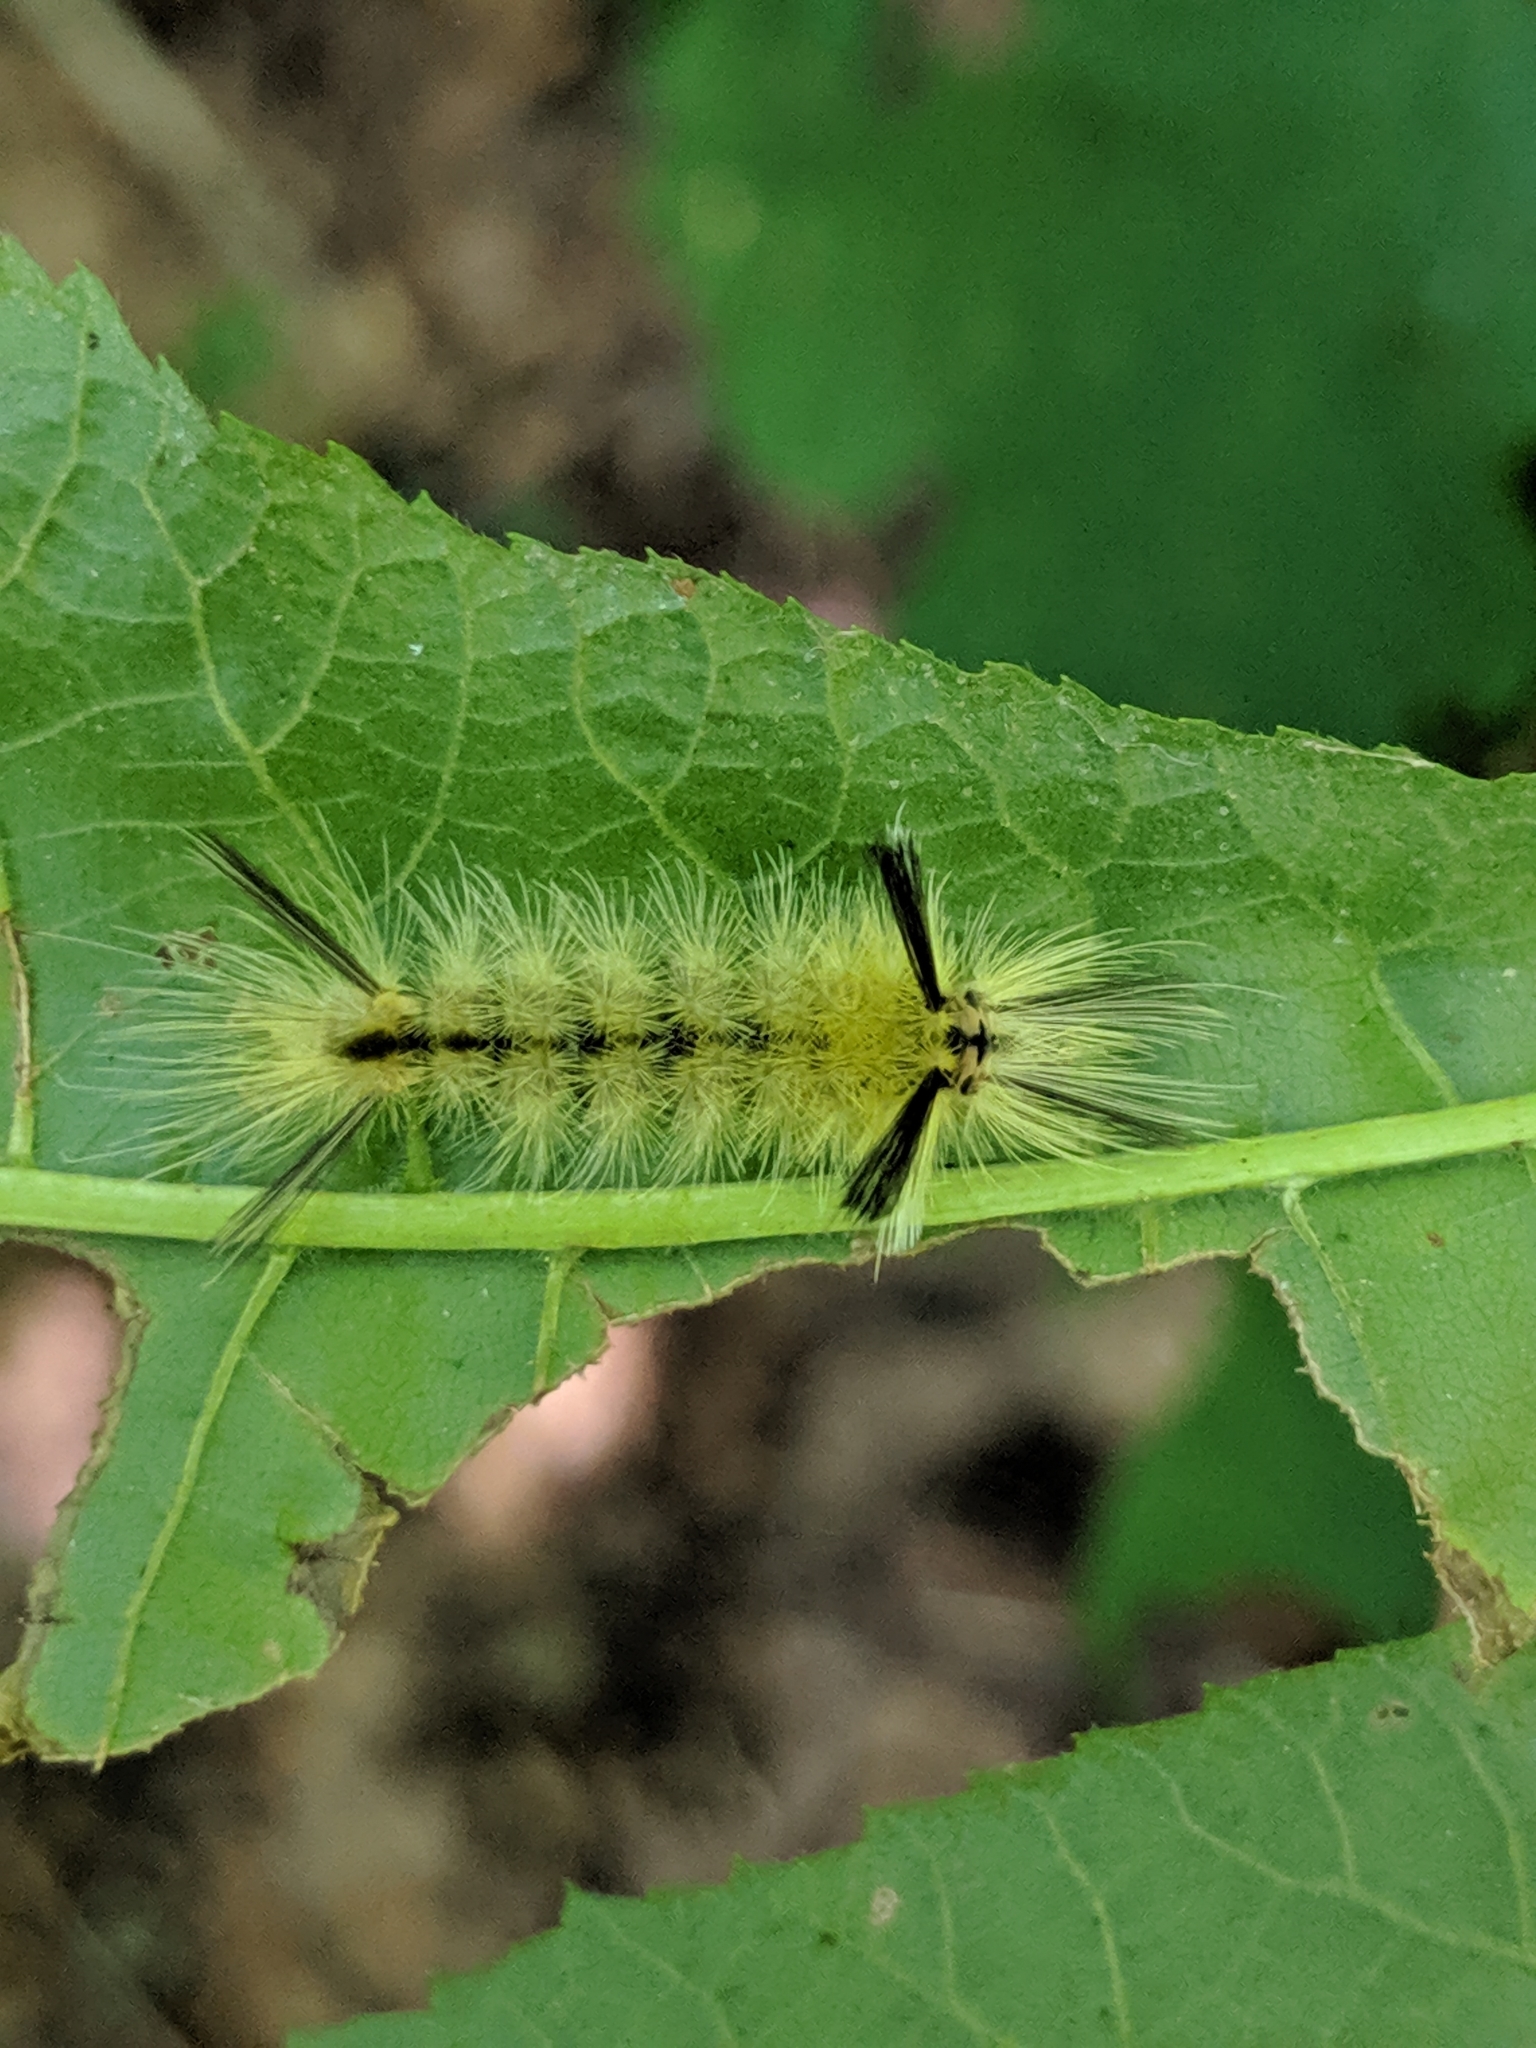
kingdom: Animalia
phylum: Arthropoda
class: Insecta
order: Lepidoptera
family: Erebidae
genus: Halysidota
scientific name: Halysidota tessellaris
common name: Banded tussock moth
